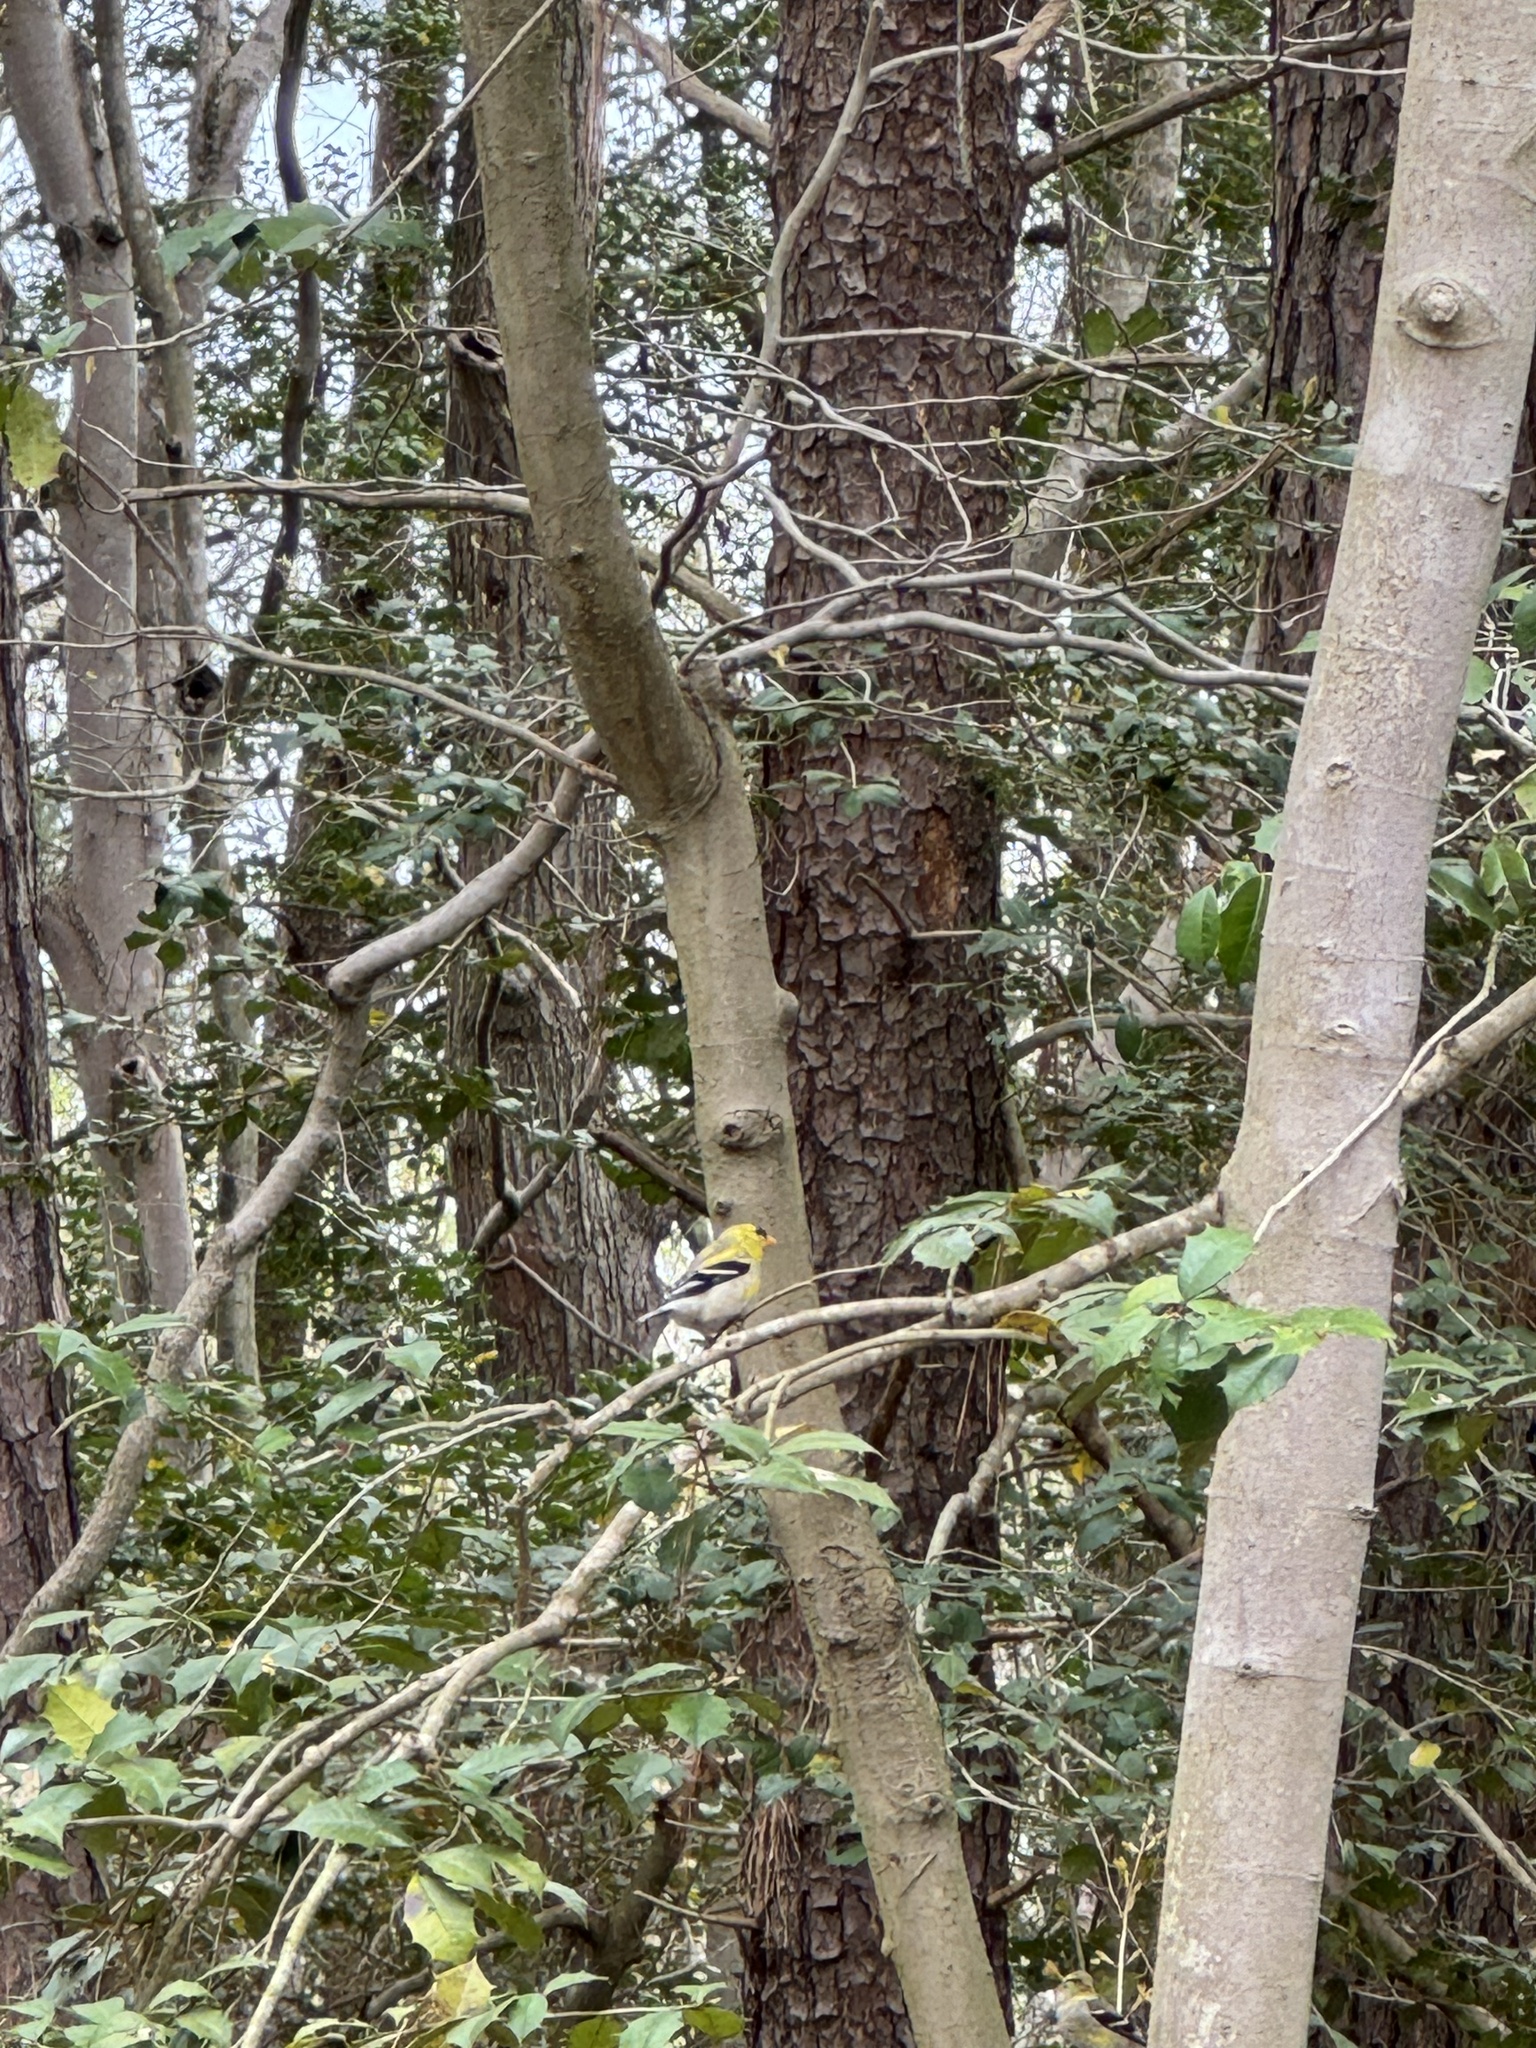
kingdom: Animalia
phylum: Chordata
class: Aves
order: Passeriformes
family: Fringillidae
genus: Spinus
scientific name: Spinus tristis
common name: American goldfinch
